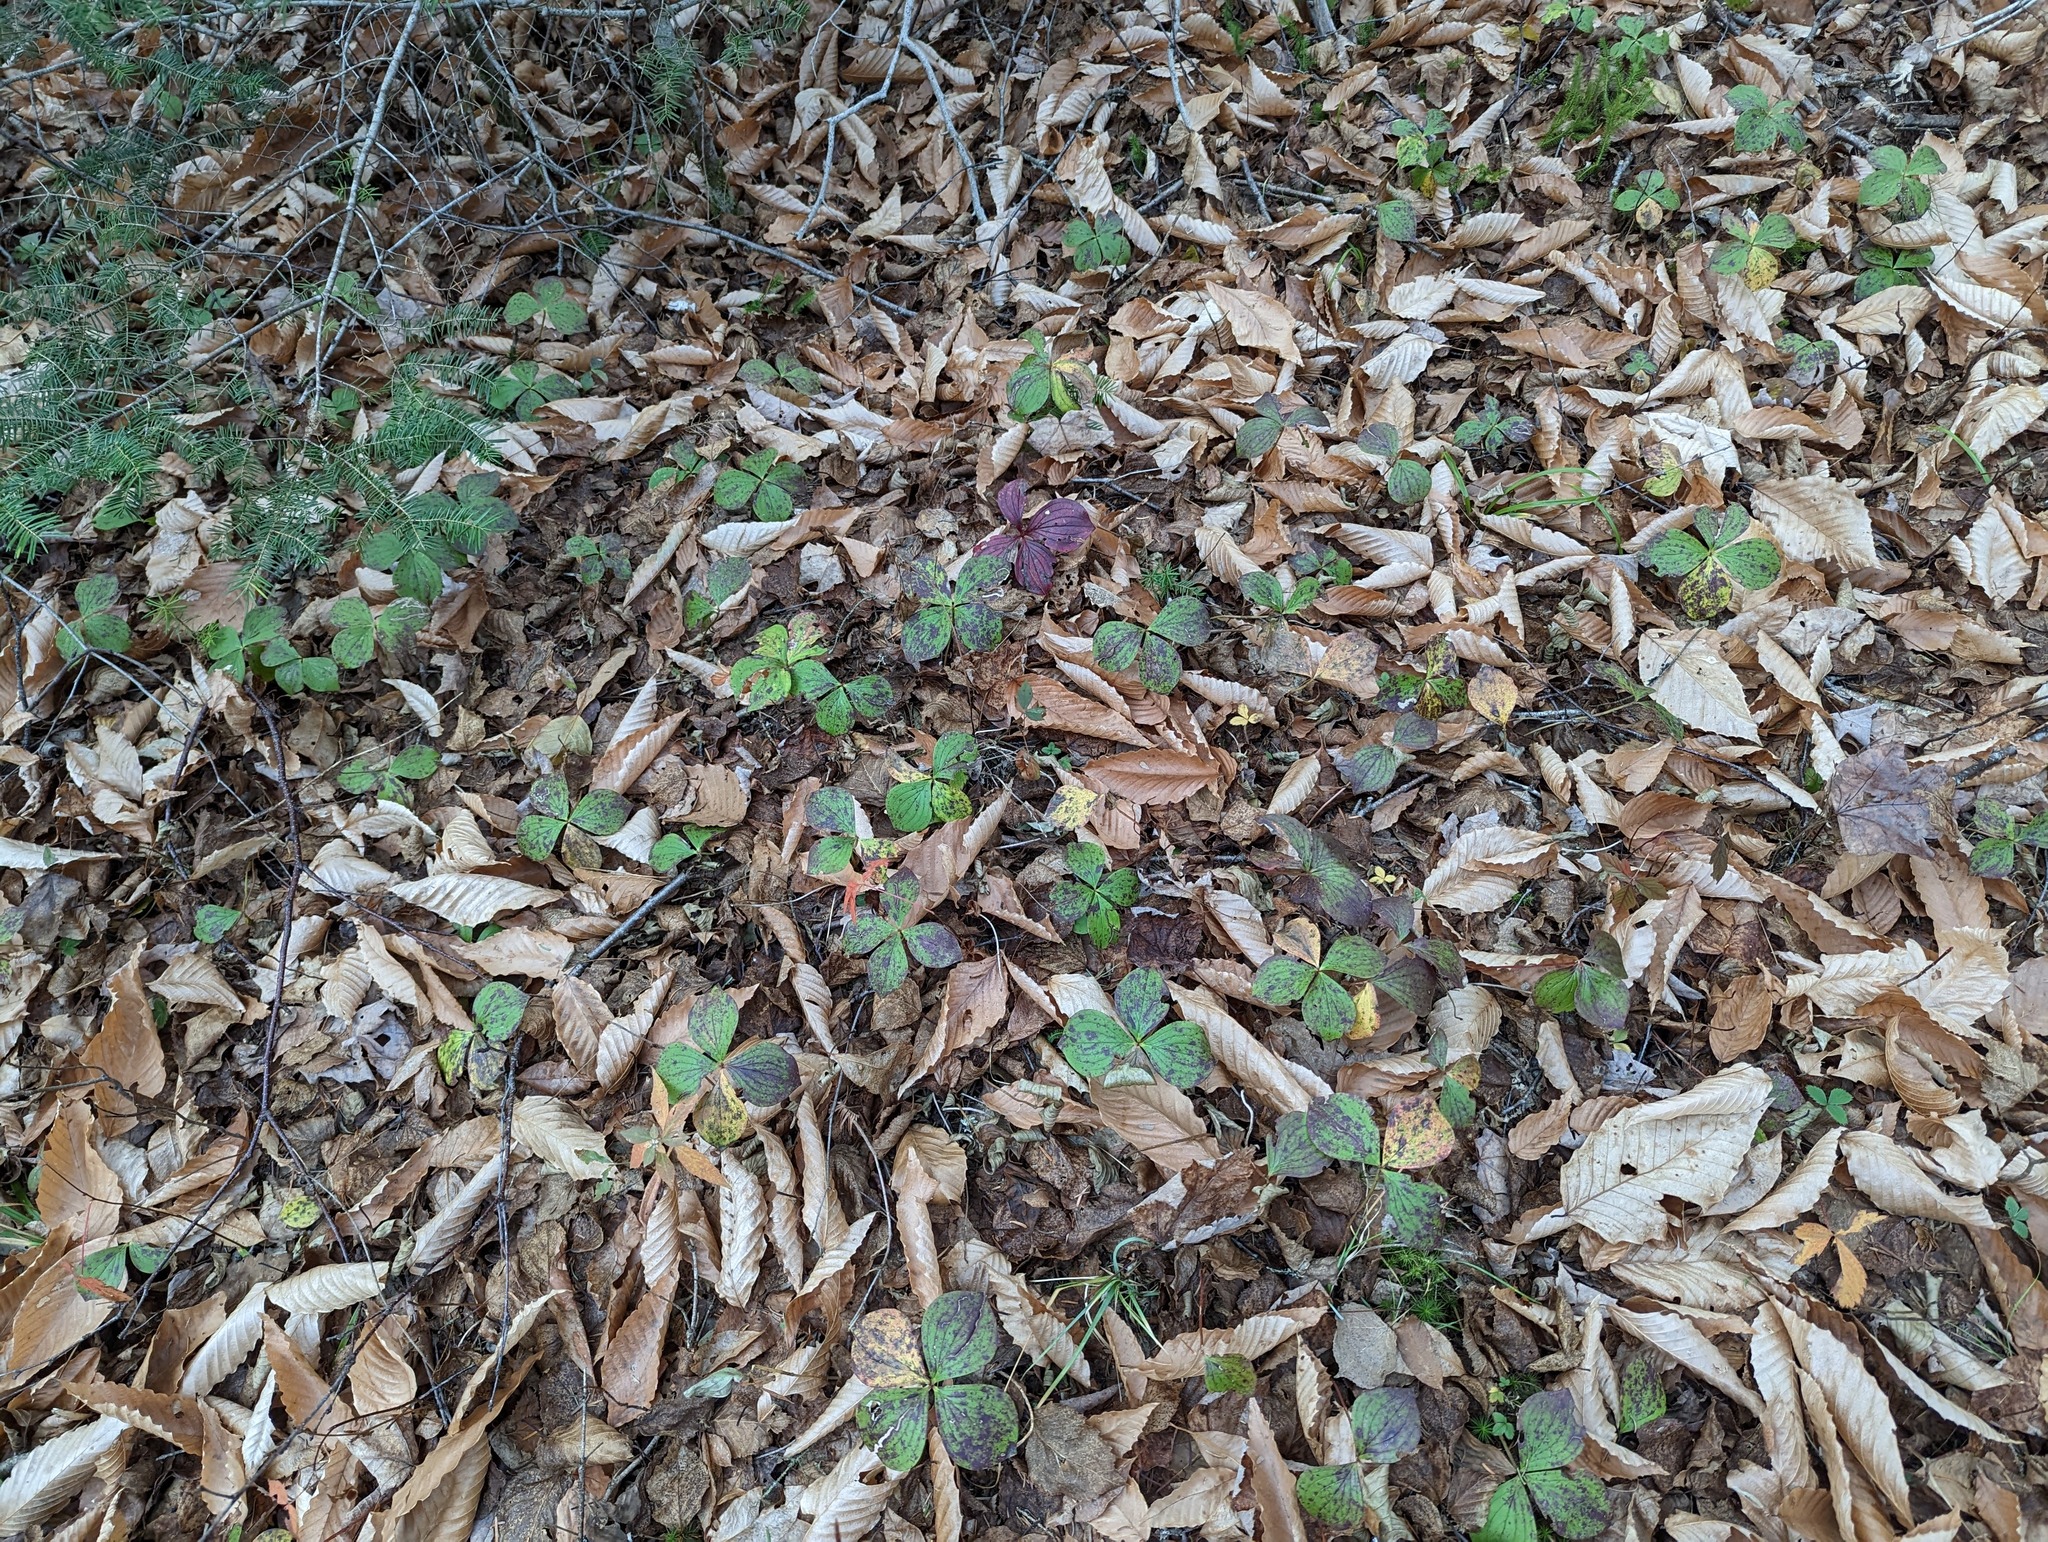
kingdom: Plantae
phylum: Tracheophyta
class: Magnoliopsida
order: Cornales
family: Cornaceae
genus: Cornus
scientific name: Cornus canadensis
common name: Creeping dogwood
